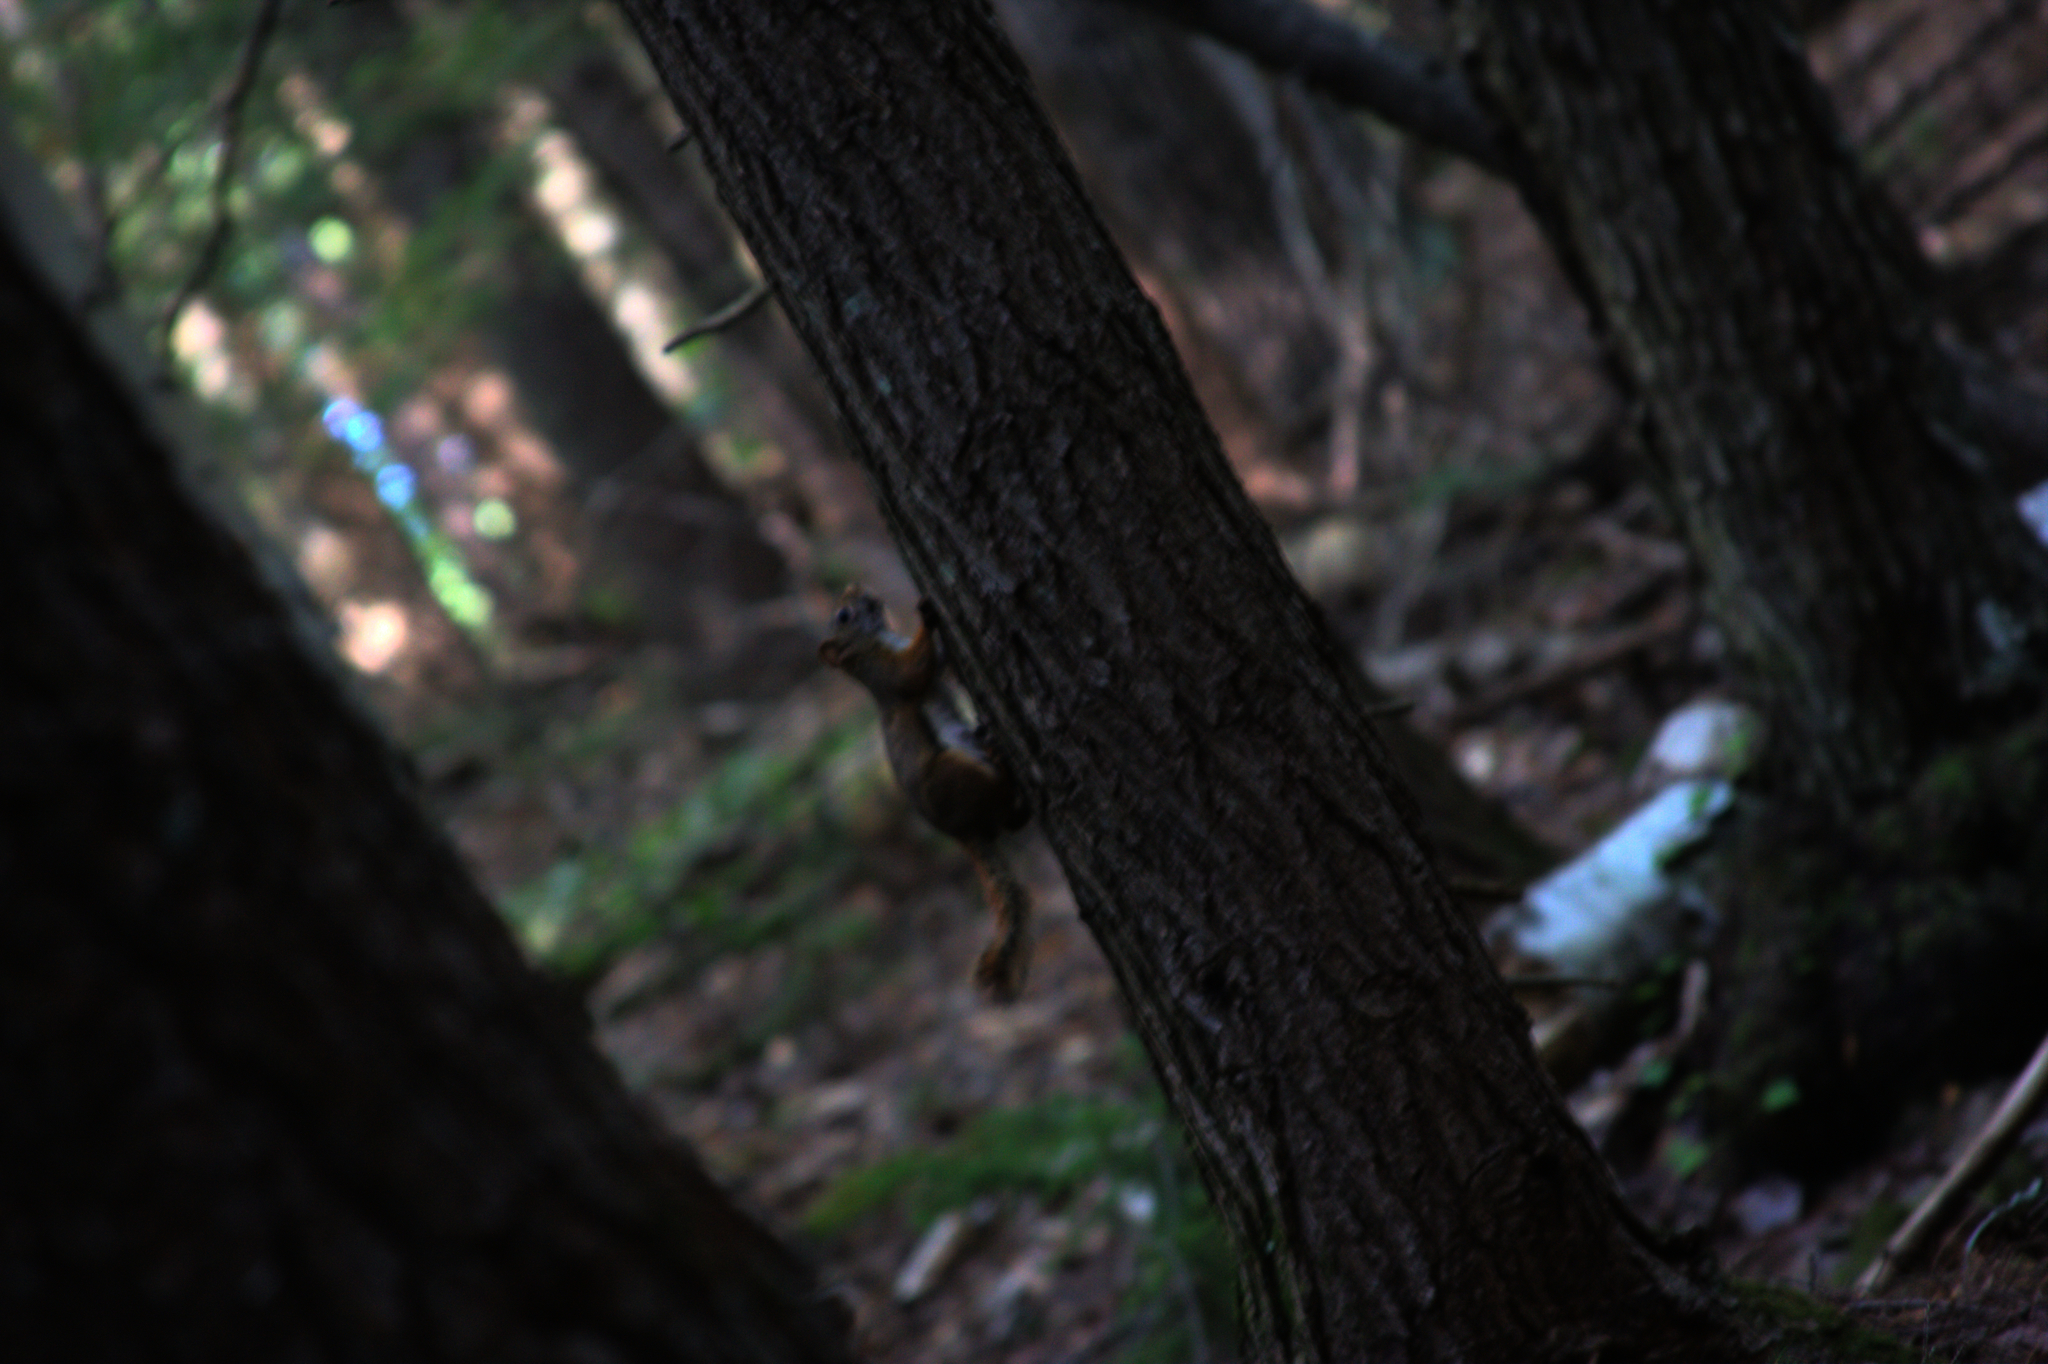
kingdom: Animalia
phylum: Chordata
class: Mammalia
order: Rodentia
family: Sciuridae
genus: Tamiasciurus
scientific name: Tamiasciurus hudsonicus
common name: Red squirrel
